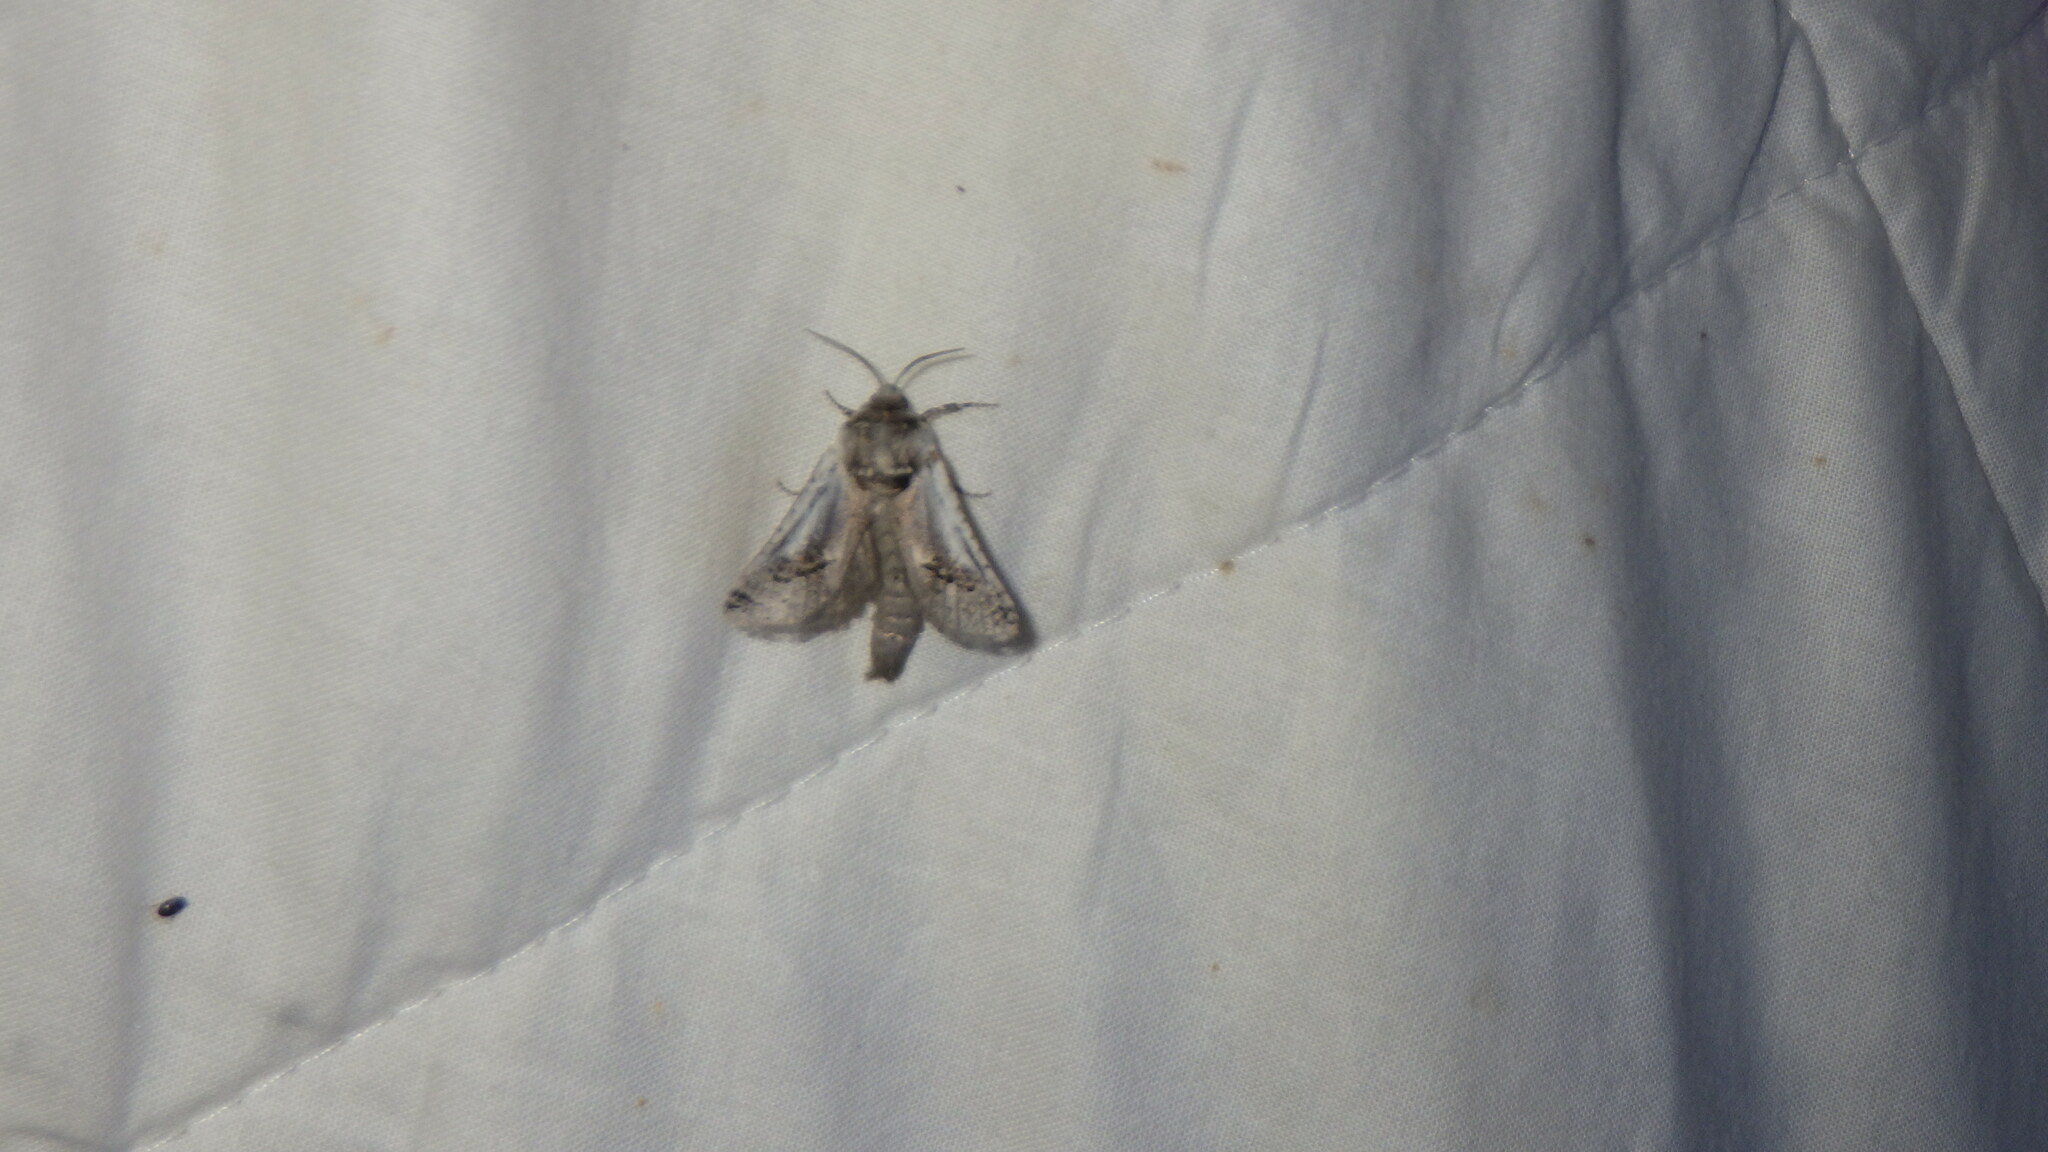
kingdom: Animalia
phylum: Arthropoda
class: Insecta
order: Lepidoptera
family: Cossidae
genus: Parahypopta
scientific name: Parahypopta caestrum
